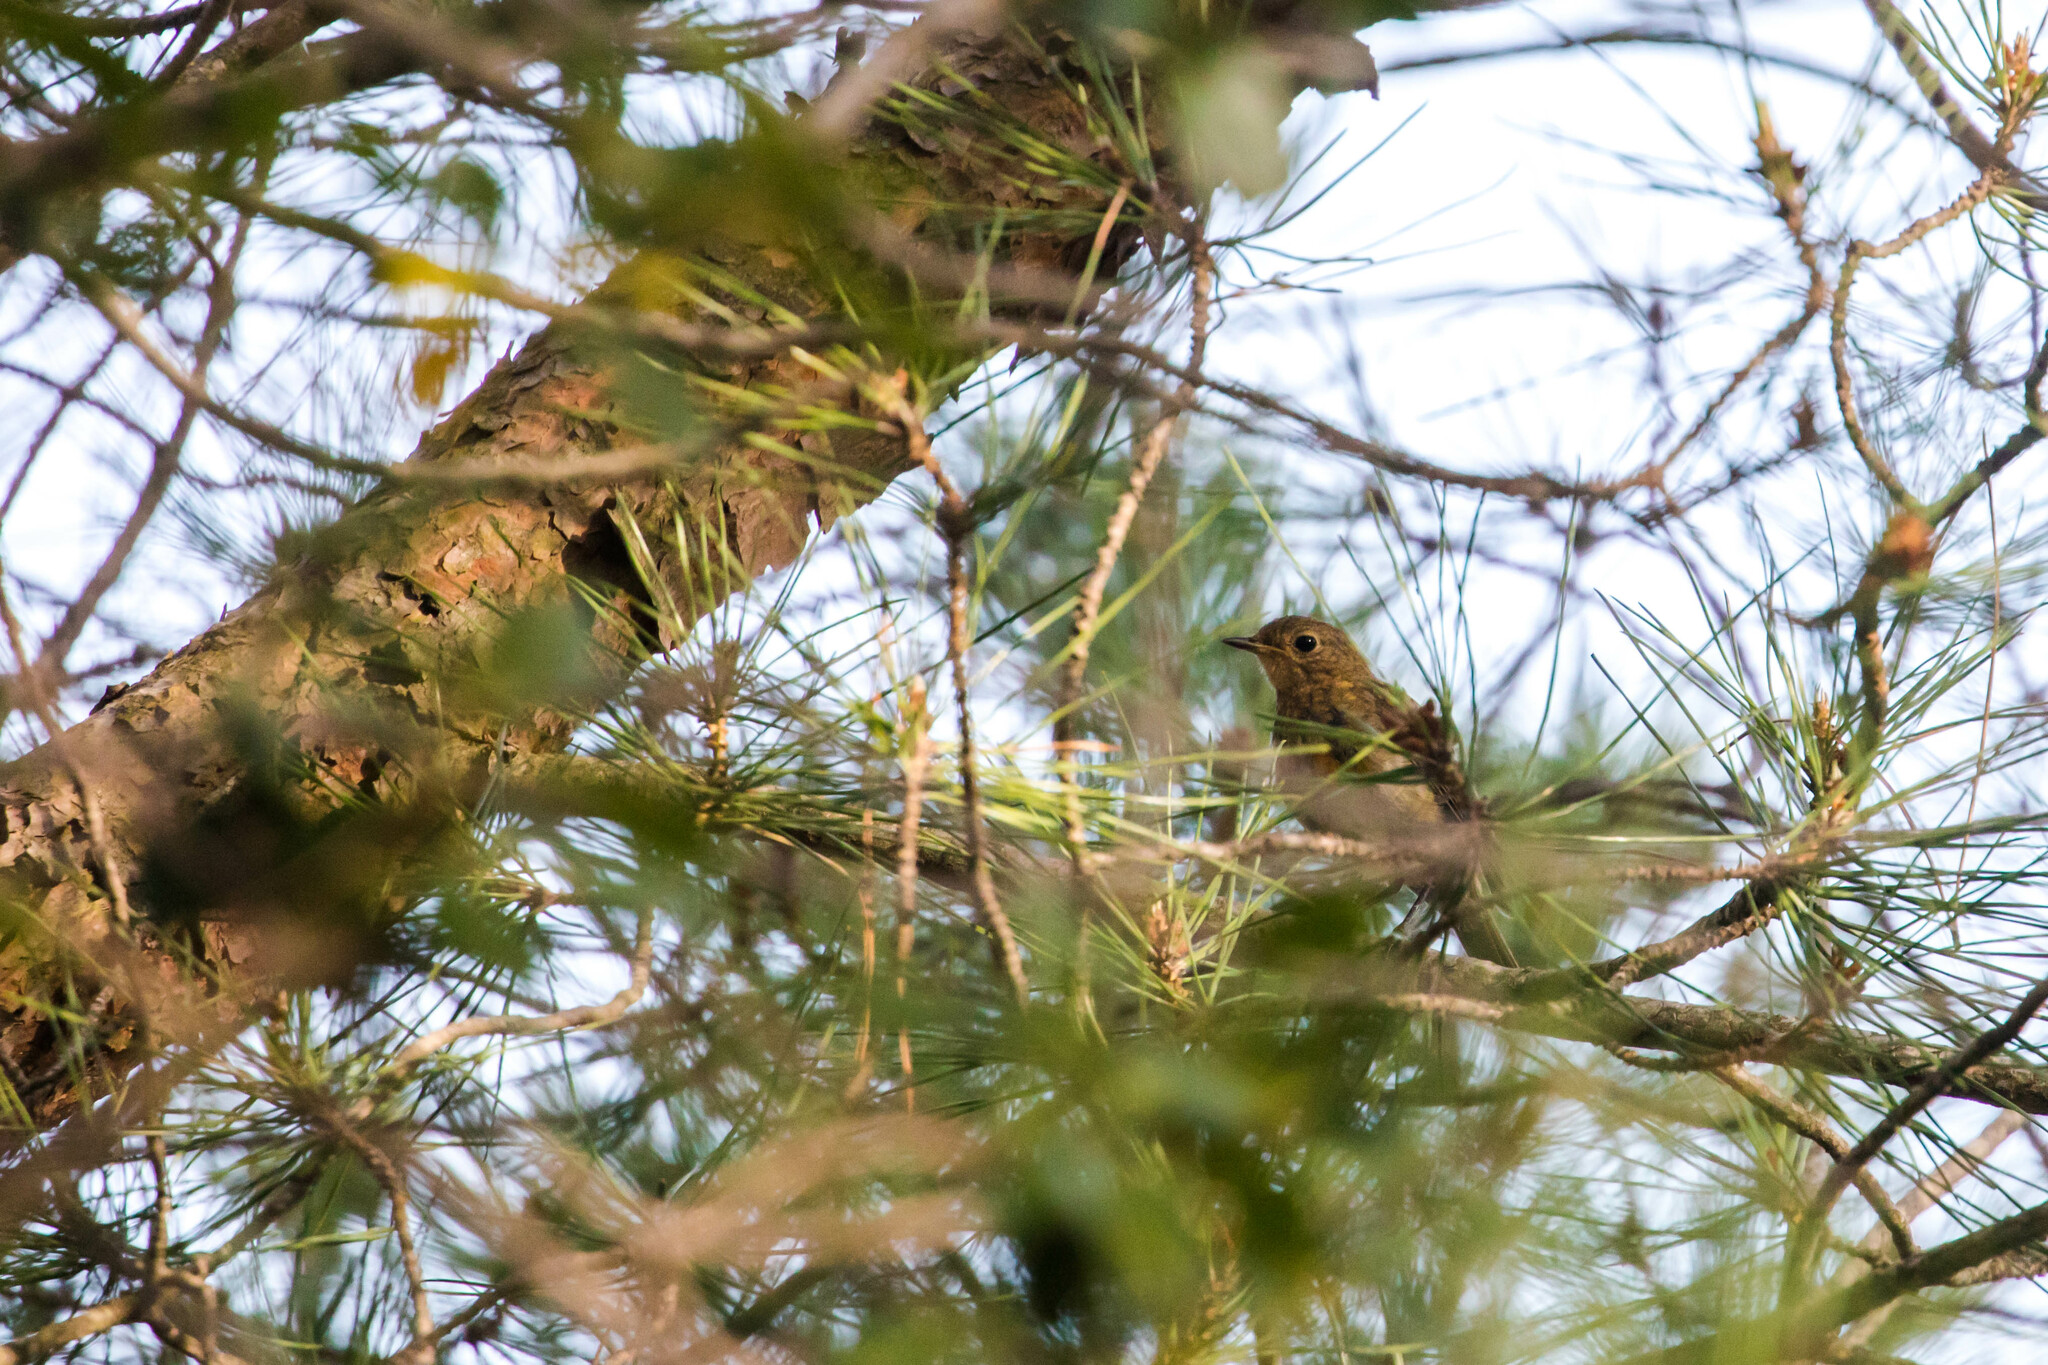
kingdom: Animalia
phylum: Chordata
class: Aves
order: Passeriformes
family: Muscicapidae
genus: Erithacus
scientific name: Erithacus rubecula
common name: European robin
